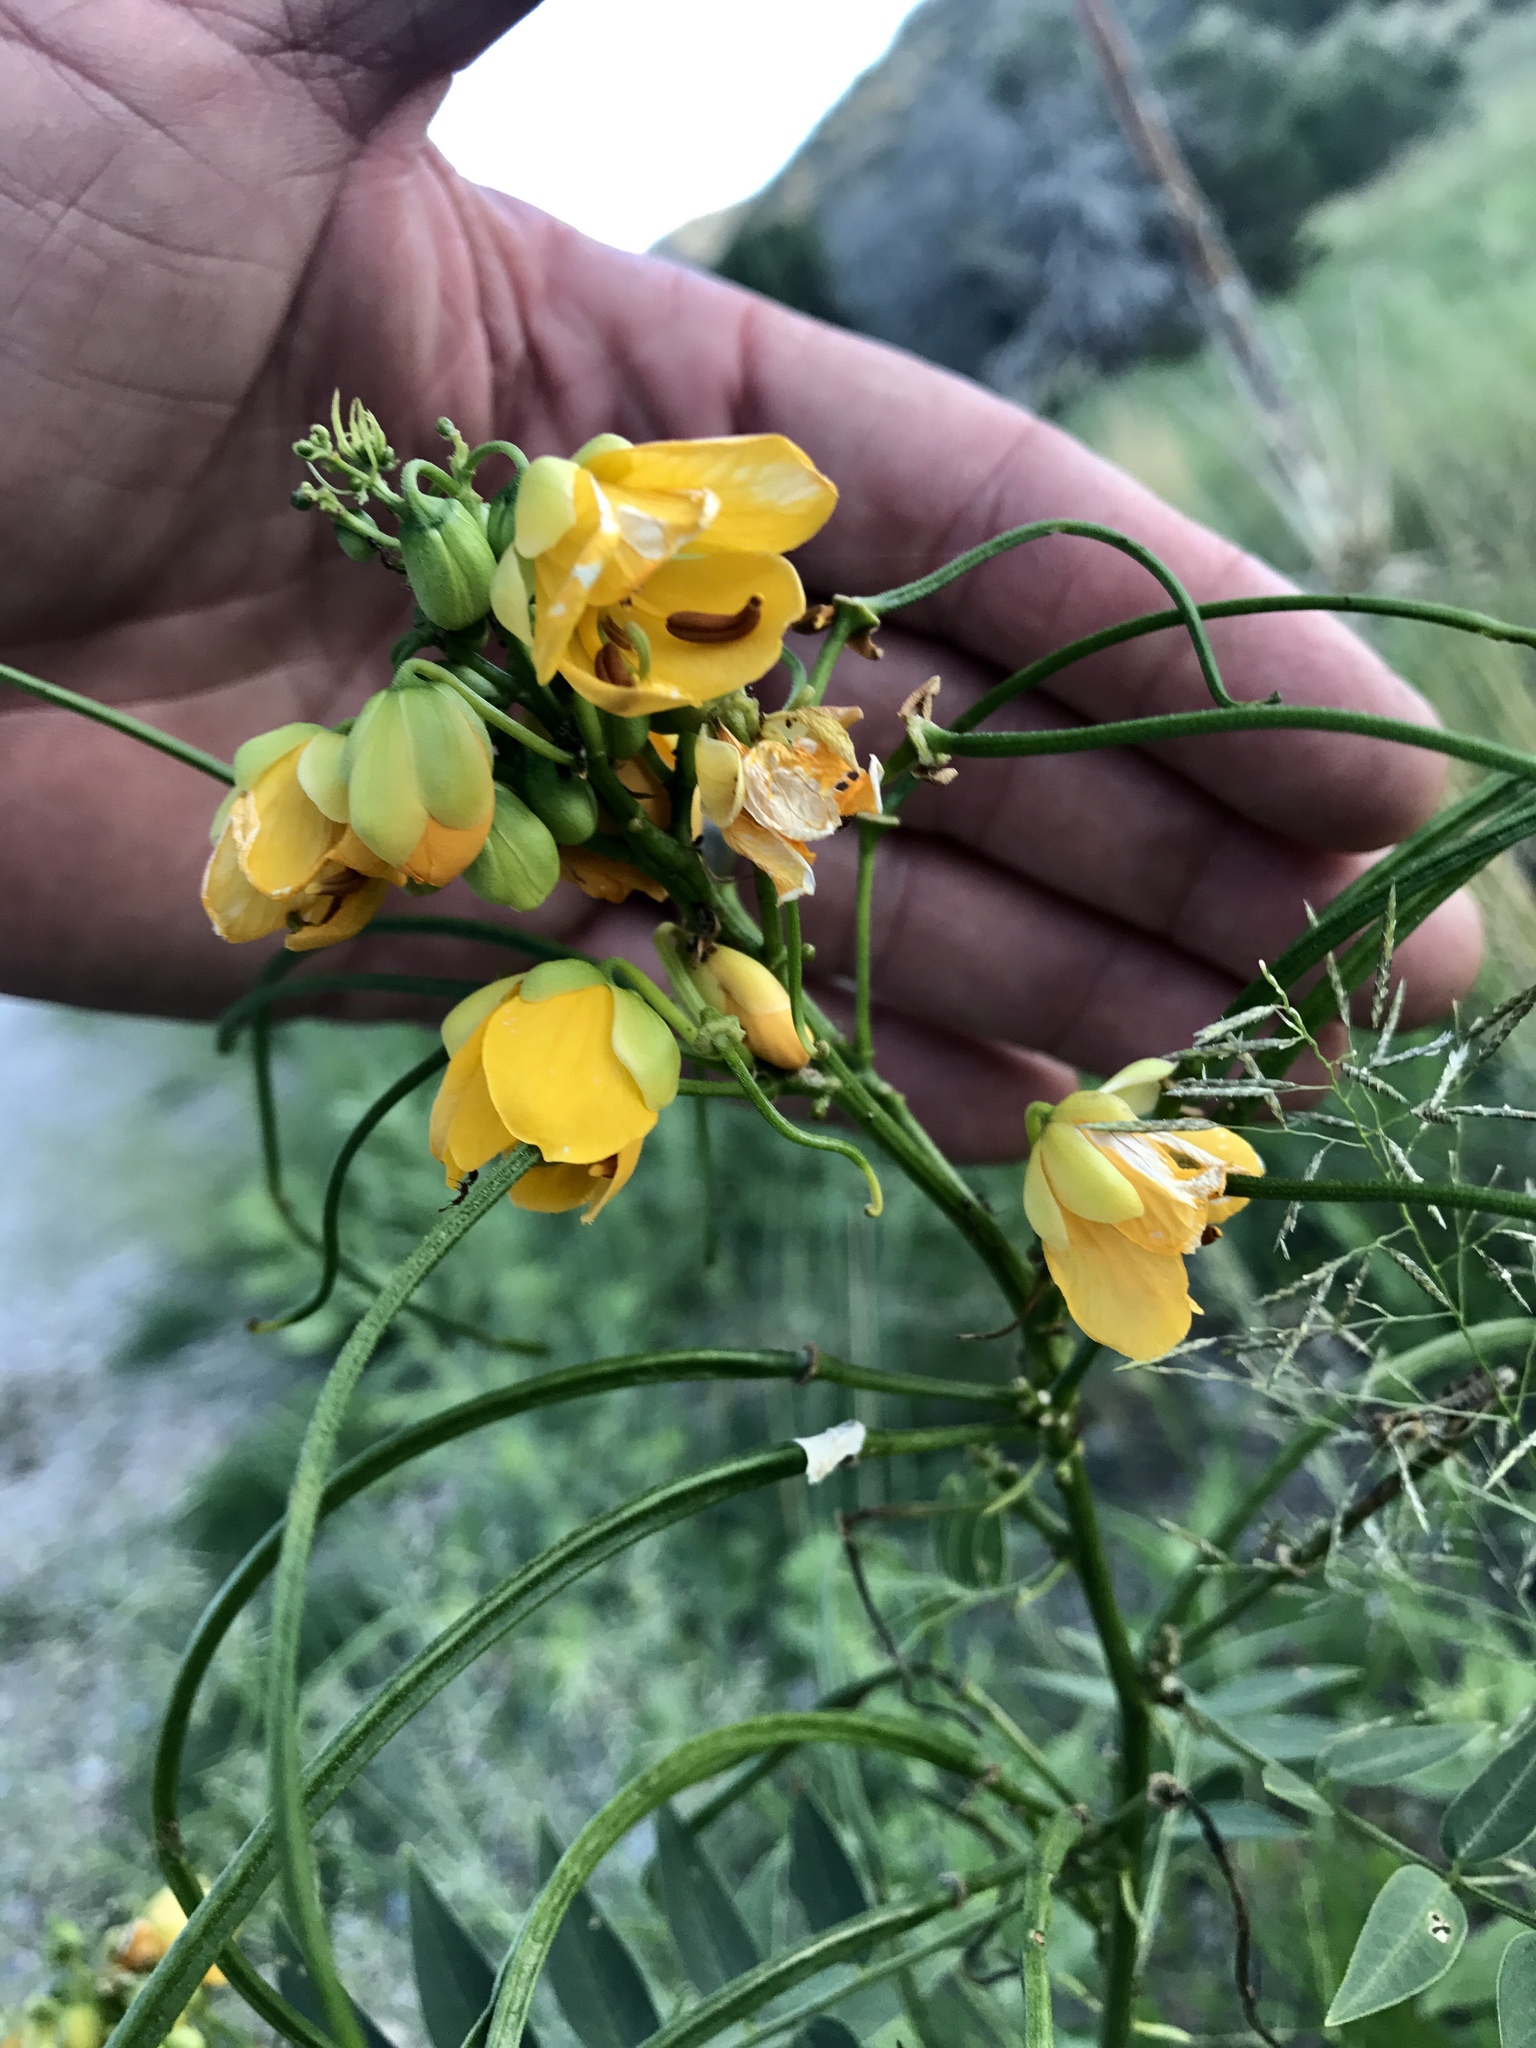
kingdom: Plantae
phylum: Tracheophyta
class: Magnoliopsida
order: Fabales
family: Fabaceae
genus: Senna
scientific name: Senna hirsuta
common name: Woolly senna
